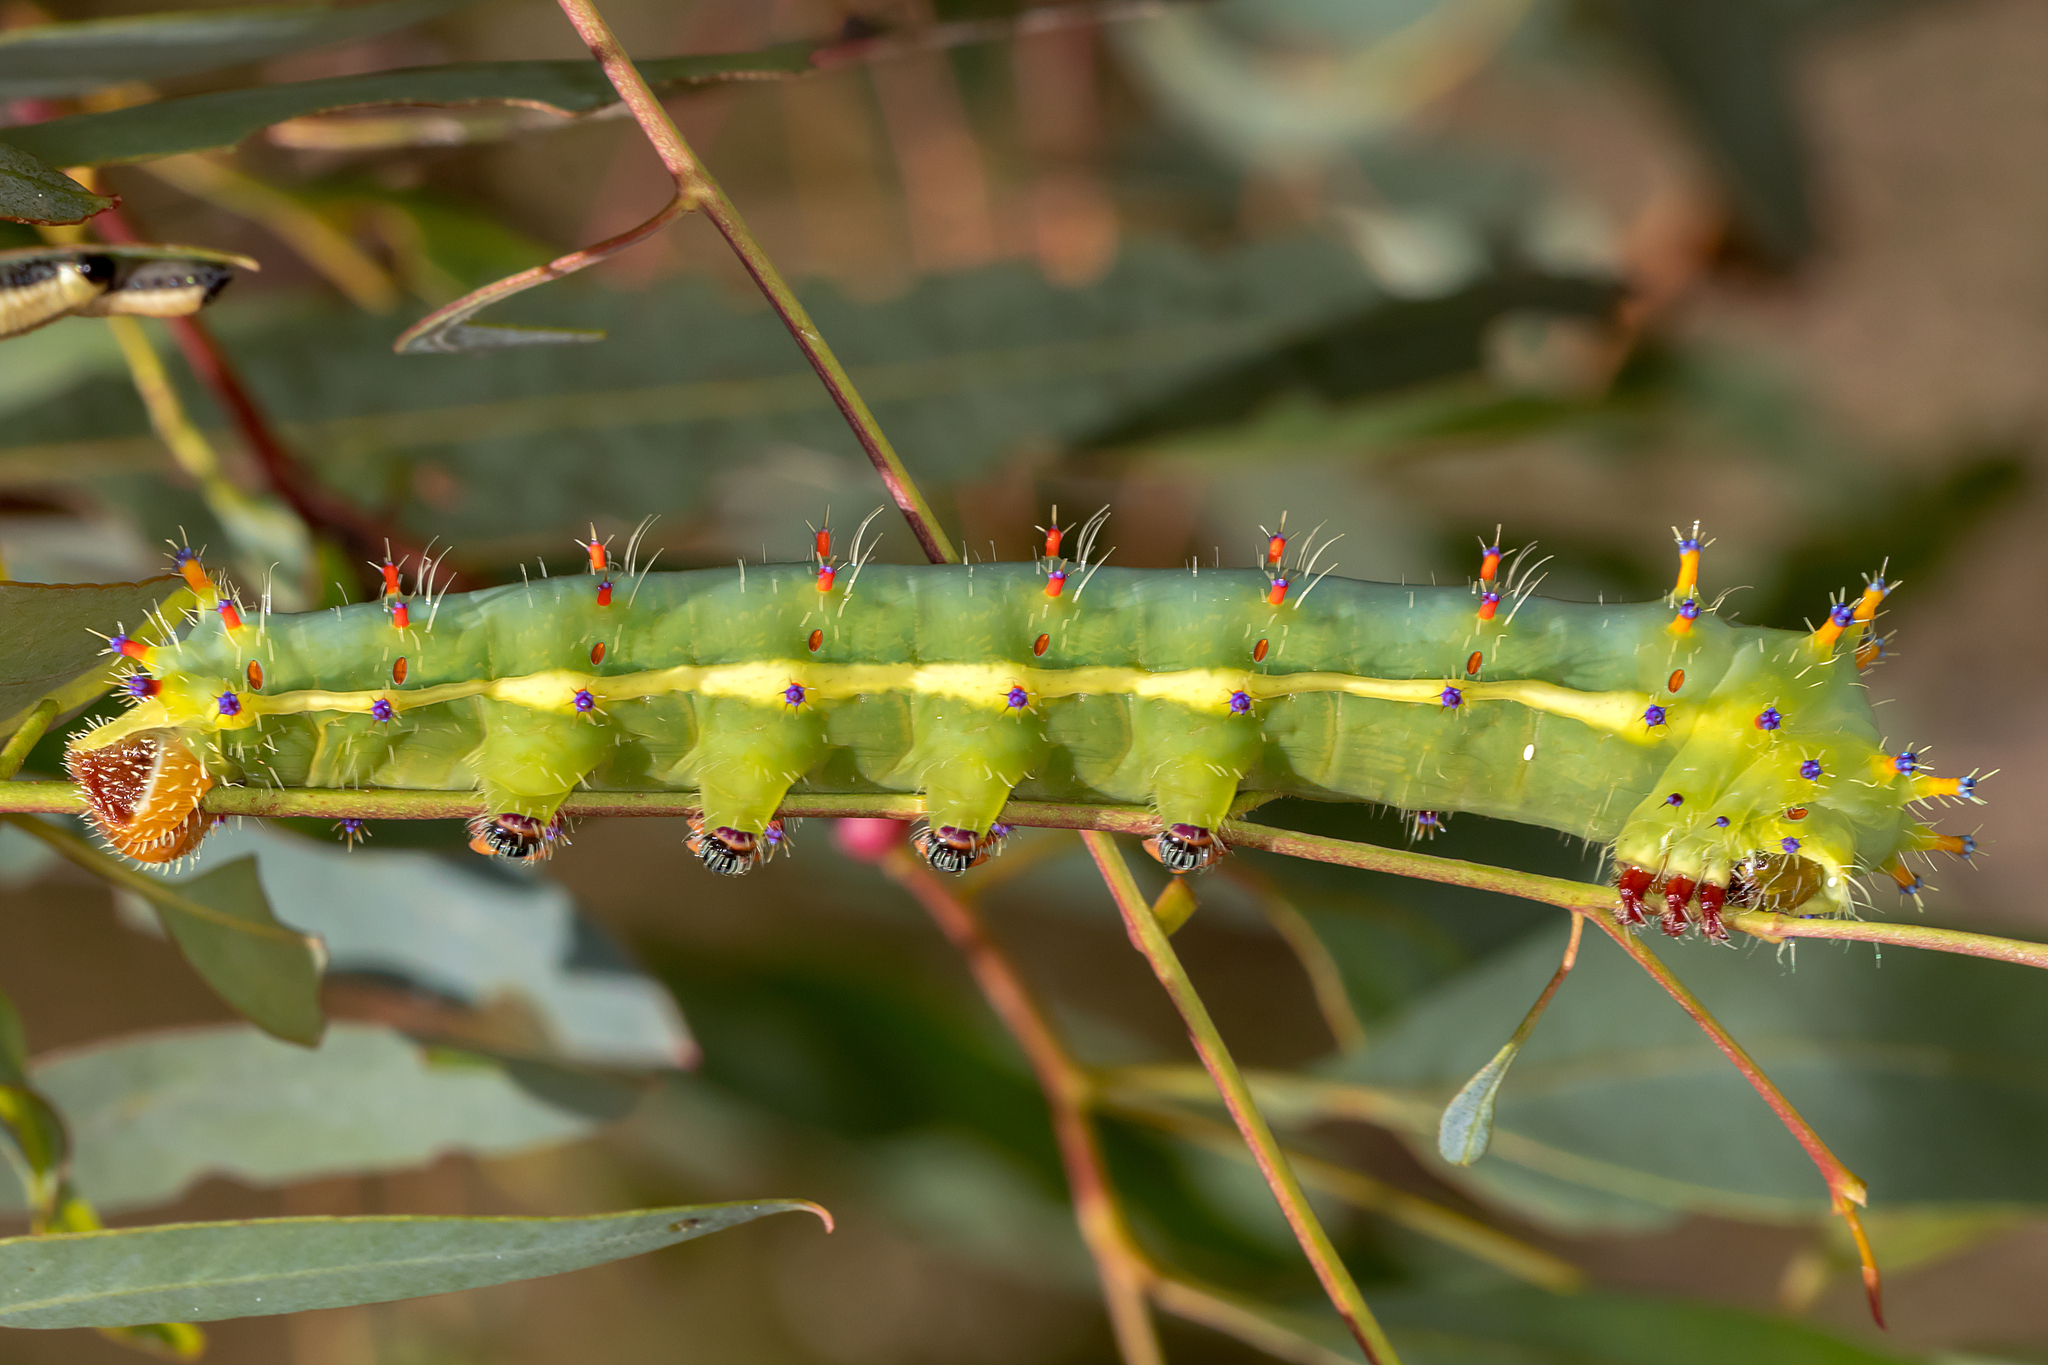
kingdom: Animalia
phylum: Arthropoda
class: Insecta
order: Lepidoptera
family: Saturniidae
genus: Opodiphthera
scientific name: Opodiphthera
